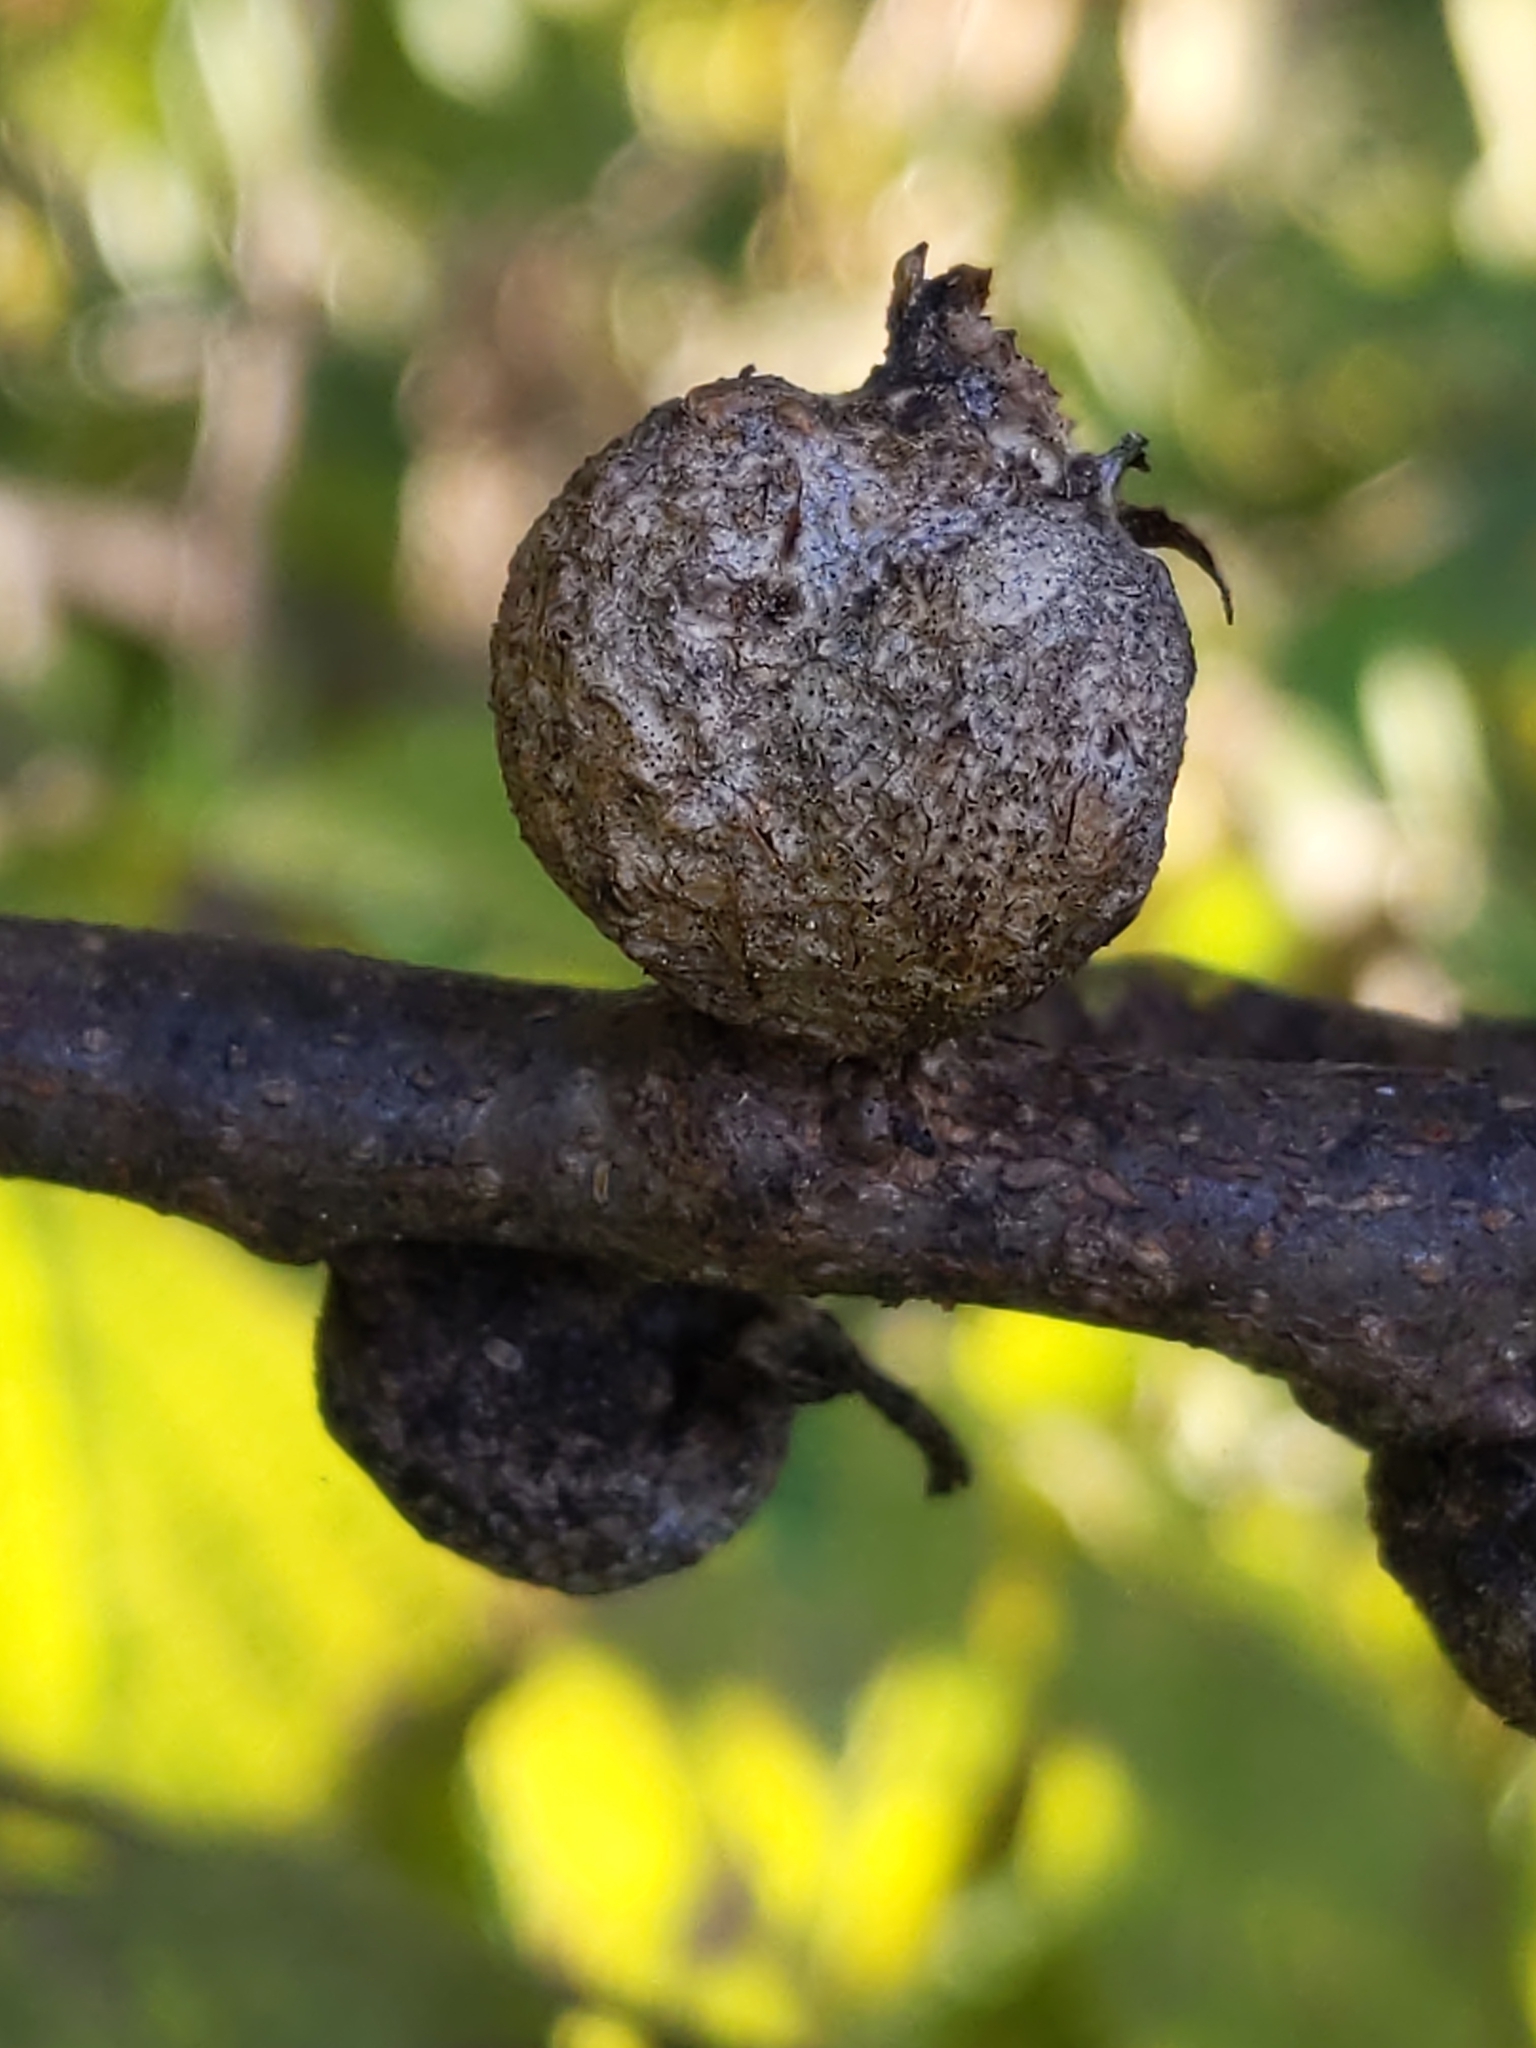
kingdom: Animalia
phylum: Arthropoda
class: Insecta
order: Hemiptera
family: Aphalaridae
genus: Pachypsylla
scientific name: Pachypsylla venusta
